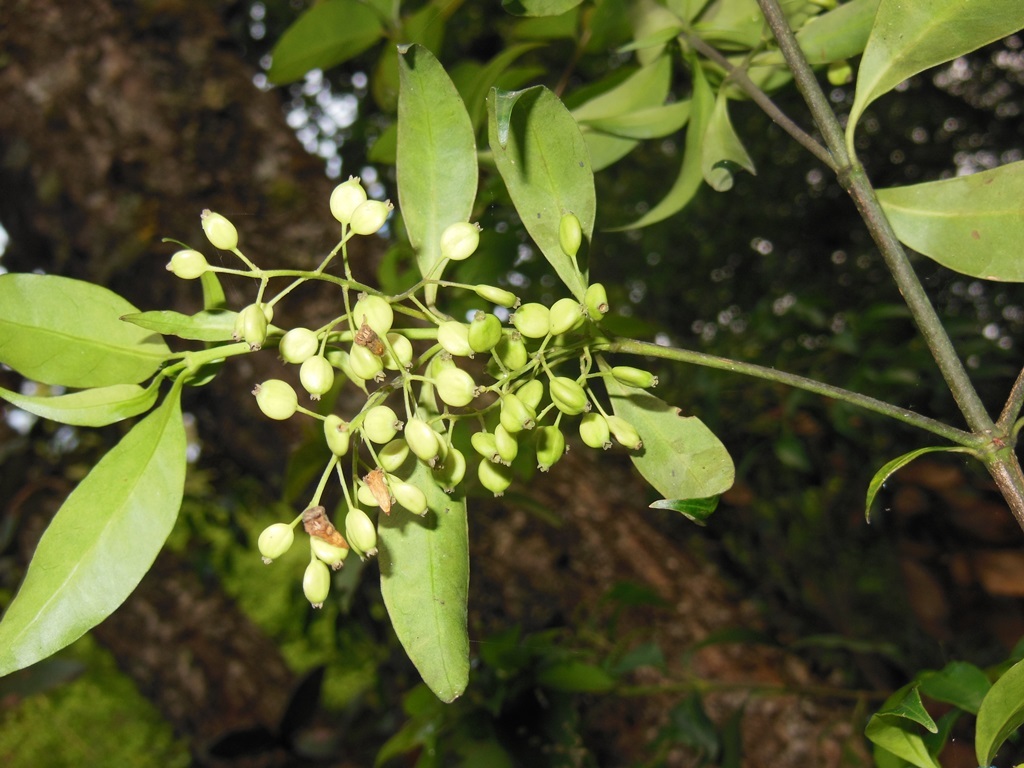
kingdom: Plantae
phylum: Tracheophyta
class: Magnoliopsida
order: Gentianales
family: Rubiaceae
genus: Chiococca
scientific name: Chiococca alba
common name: Snowberry
